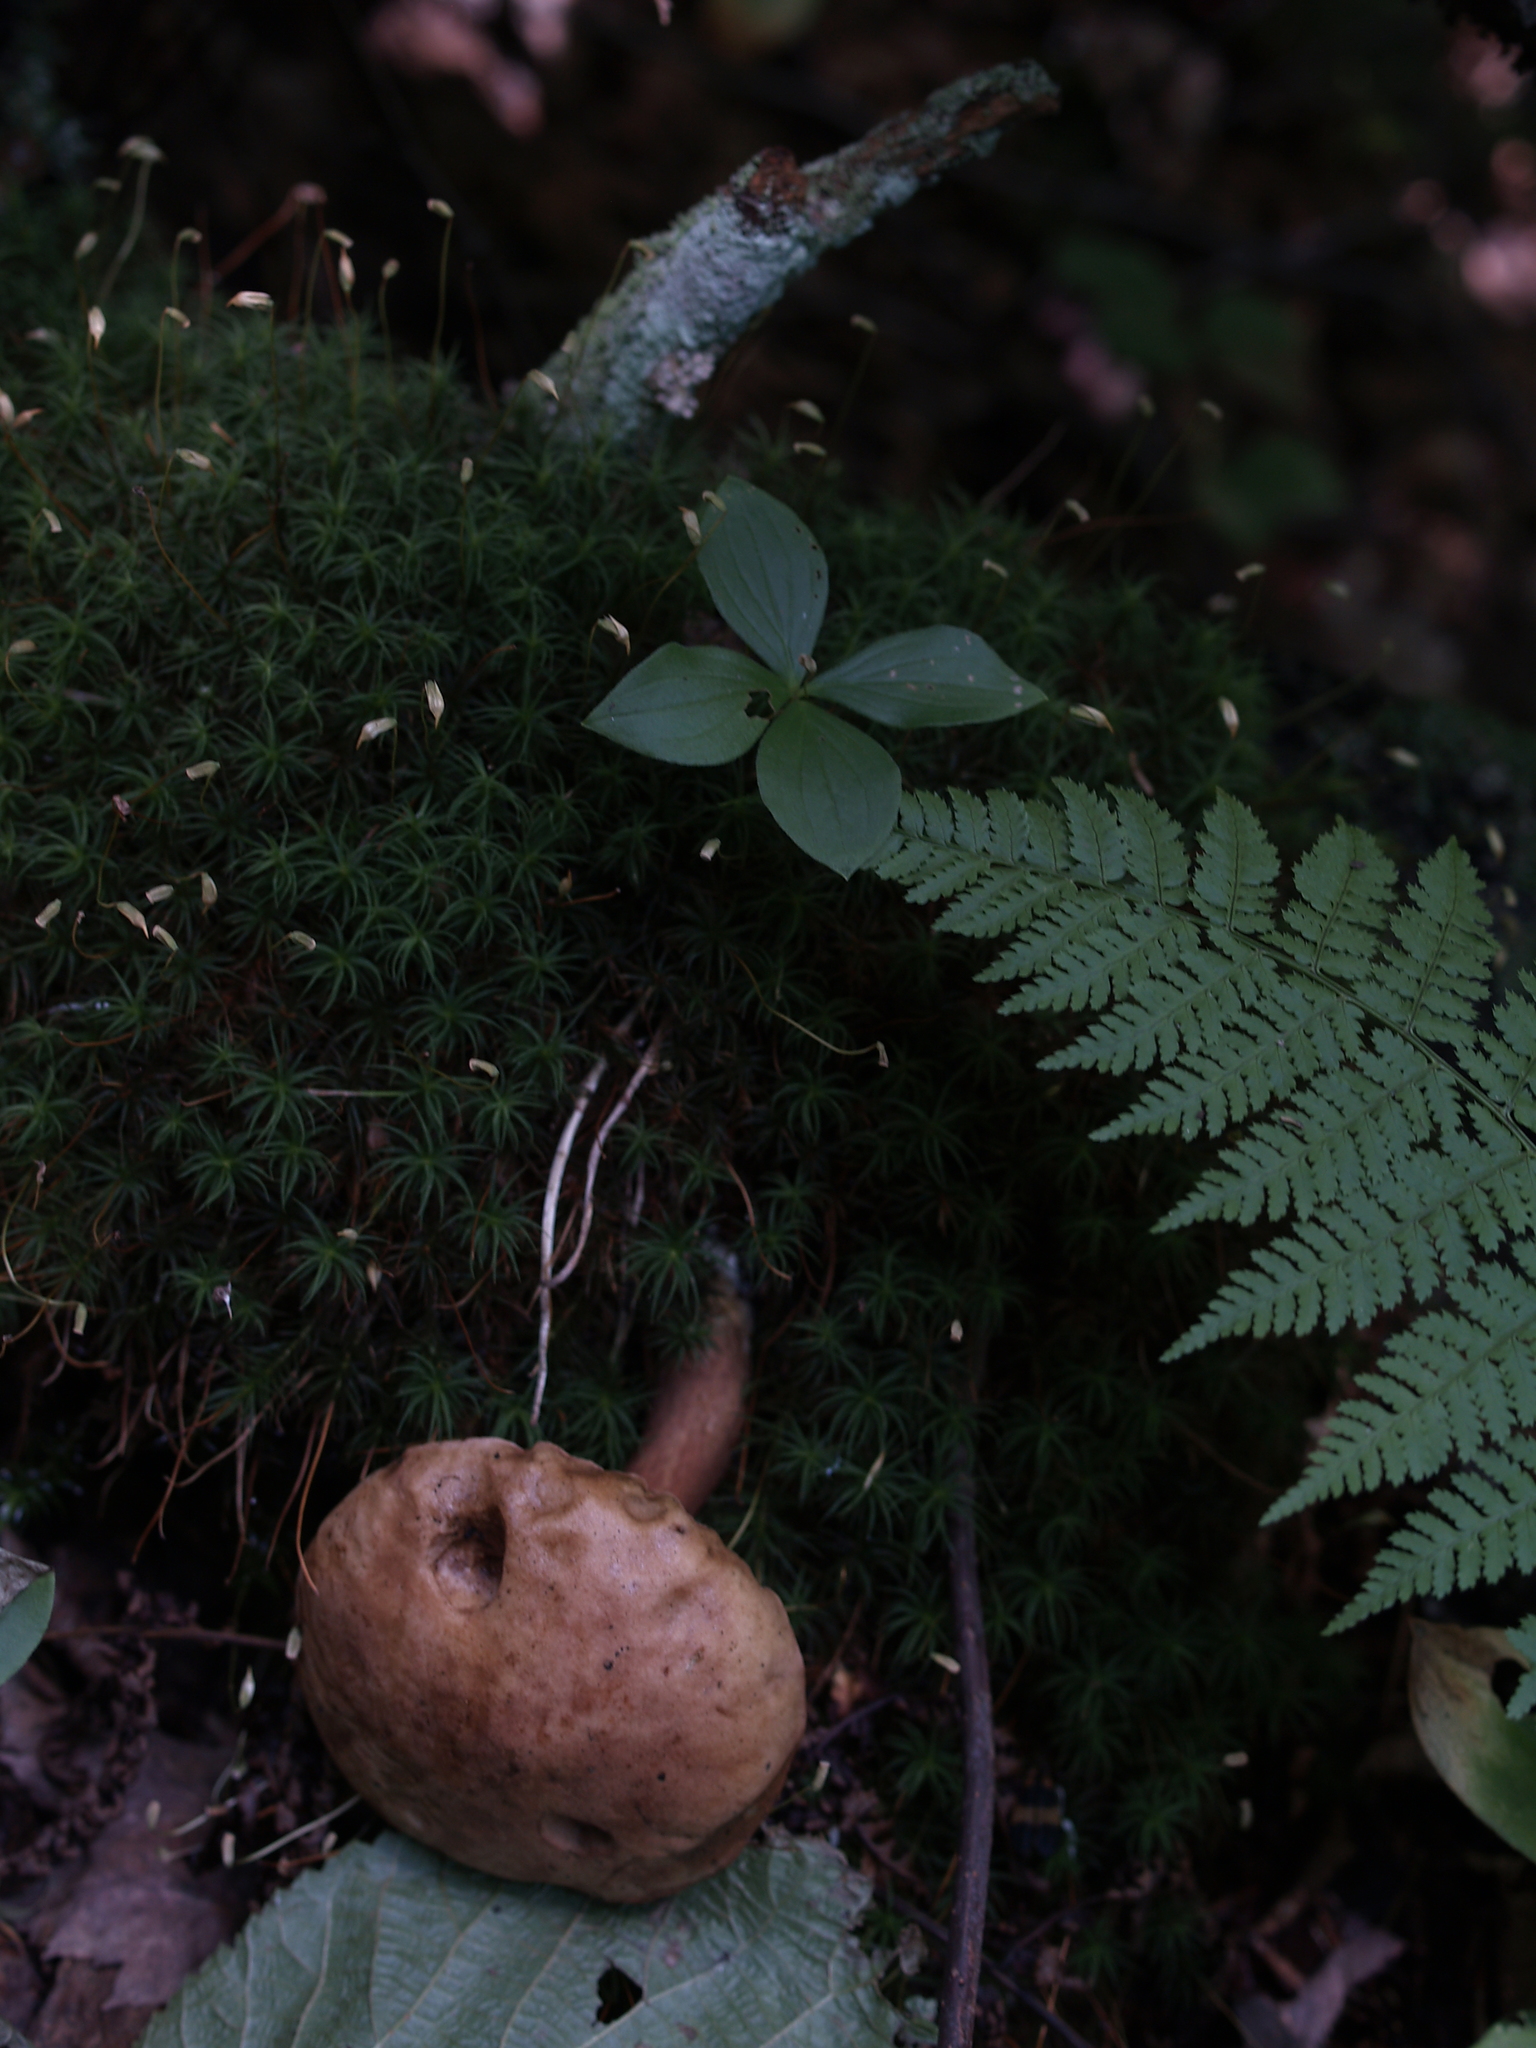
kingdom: Plantae
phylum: Tracheophyta
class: Polypodiopsida
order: Polypodiales
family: Dryopteridaceae
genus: Dryopteris
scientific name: Dryopteris intermedia
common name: Evergreen wood fern
